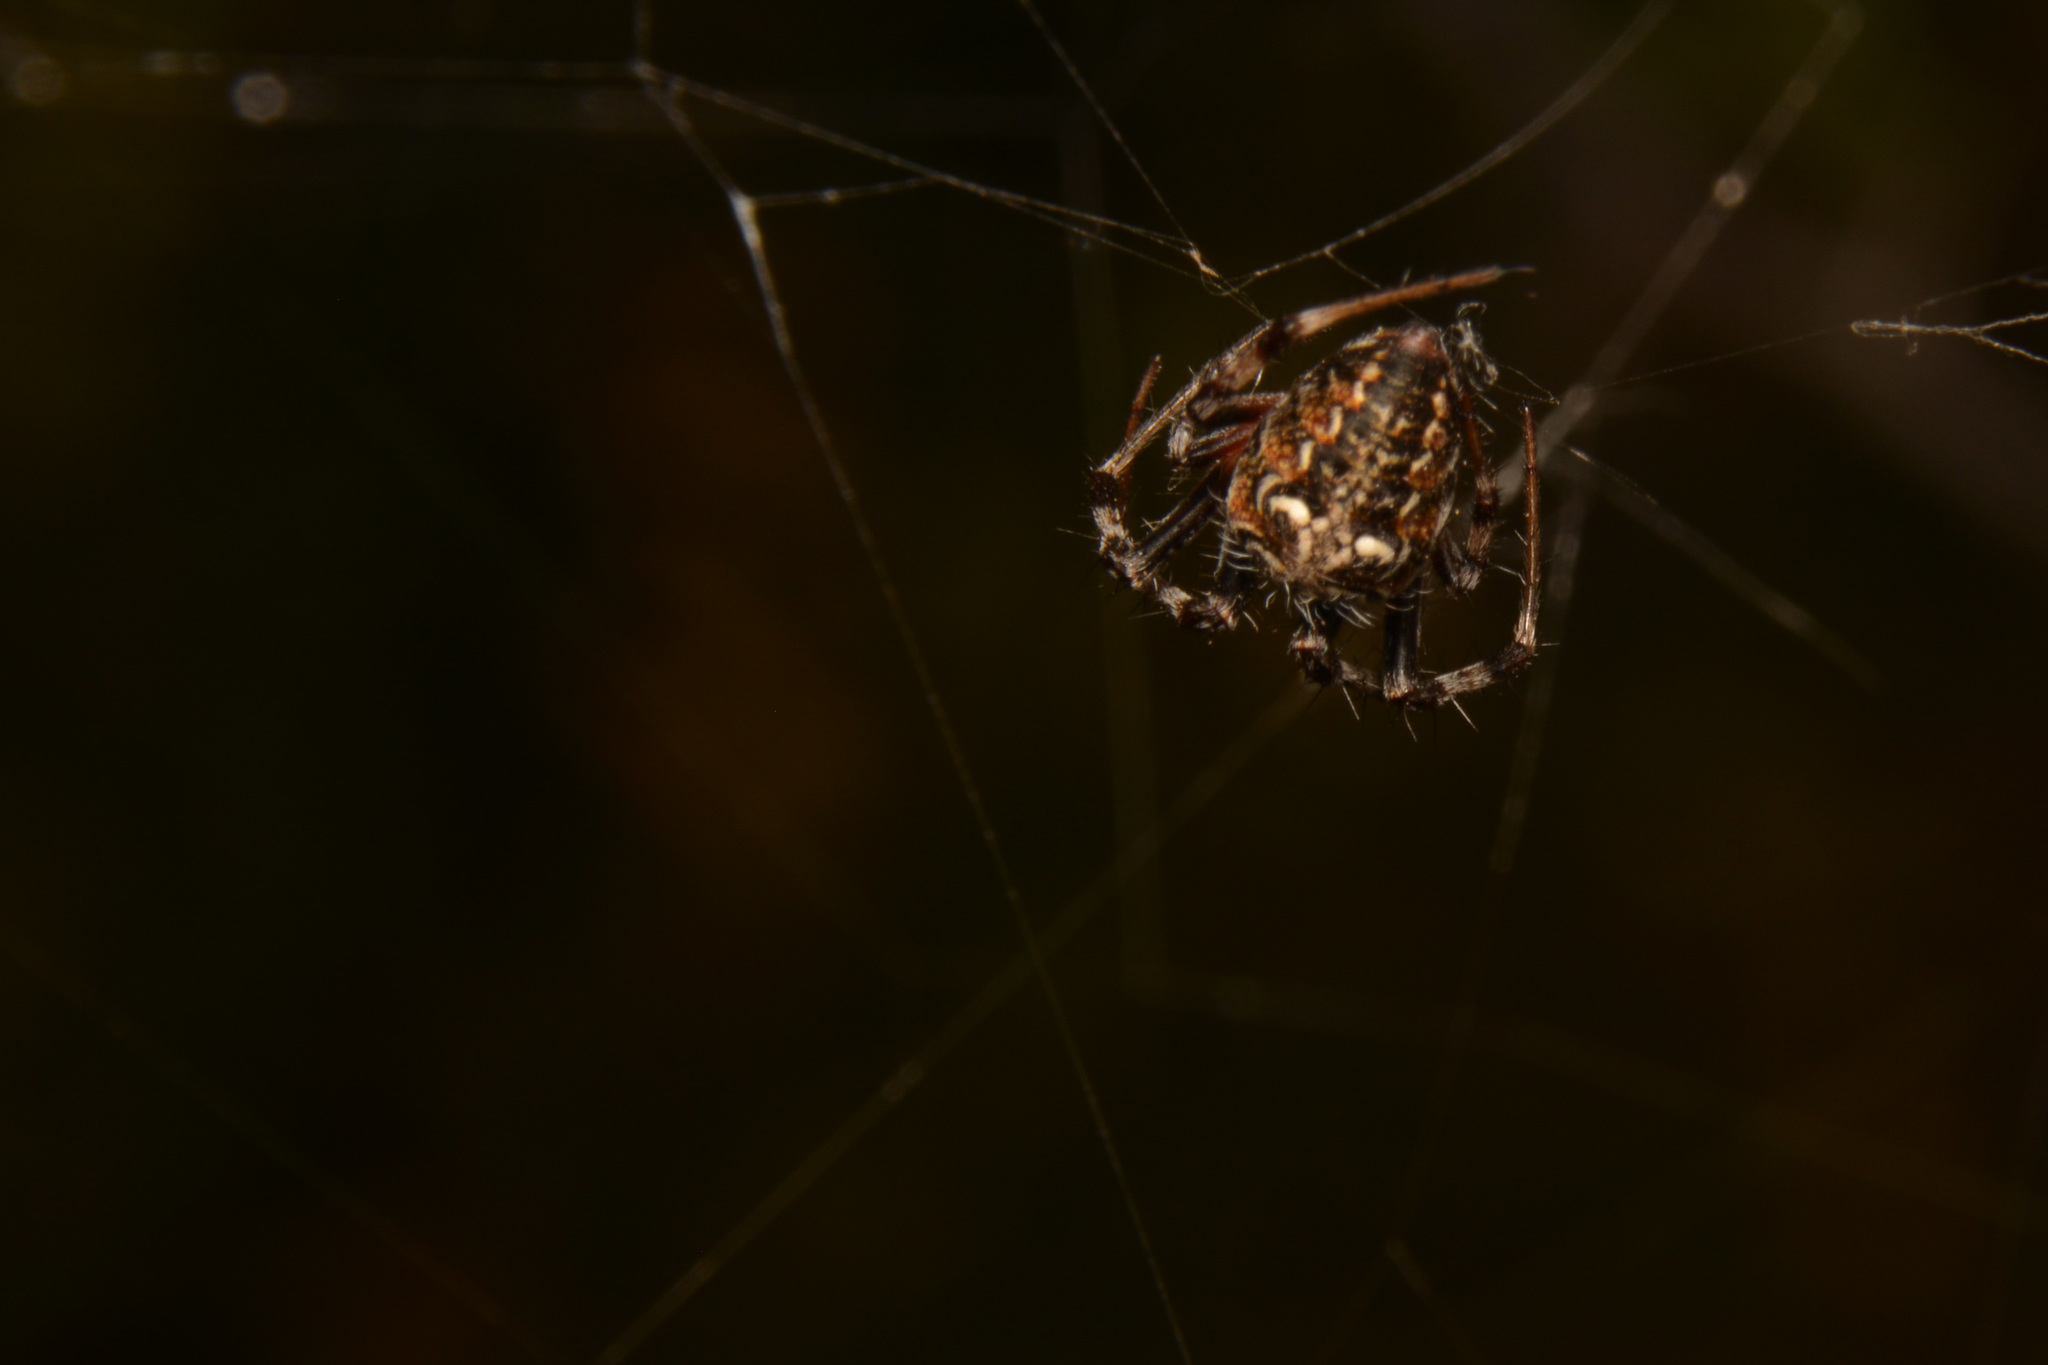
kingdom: Animalia
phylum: Arthropoda
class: Arachnida
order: Araneae
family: Araneidae
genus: Metepeira
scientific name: Metepeira
